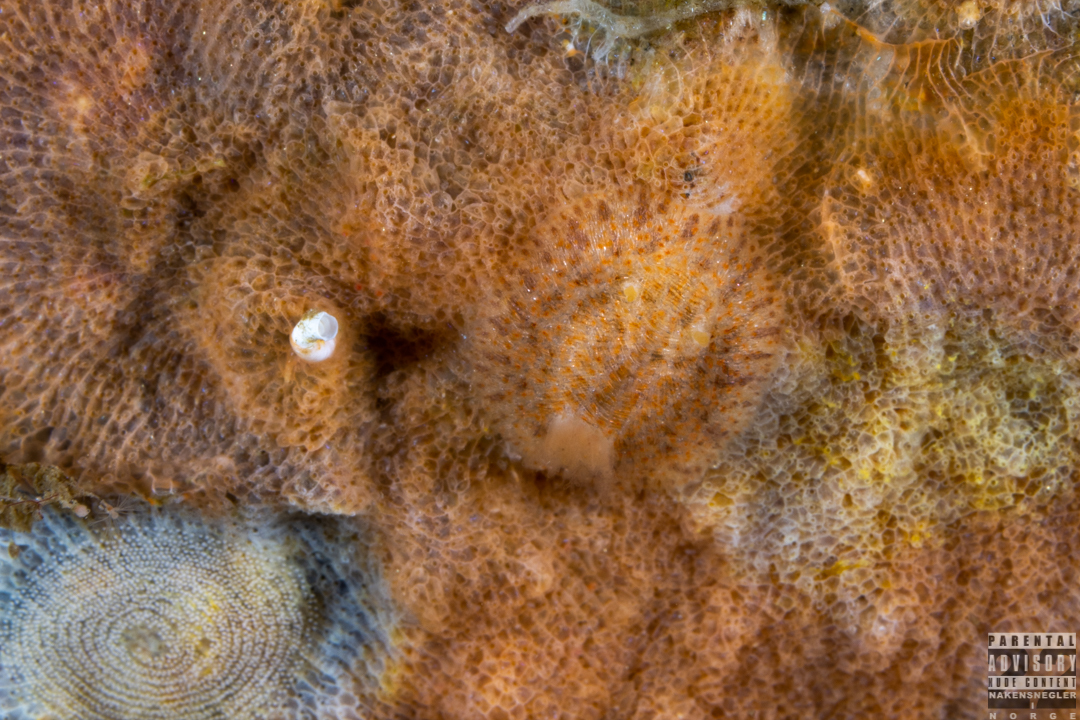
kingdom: Animalia
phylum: Mollusca
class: Gastropoda
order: Nudibranchia
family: Onchidorididae
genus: Idaliadoris
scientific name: Idaliadoris depressa
